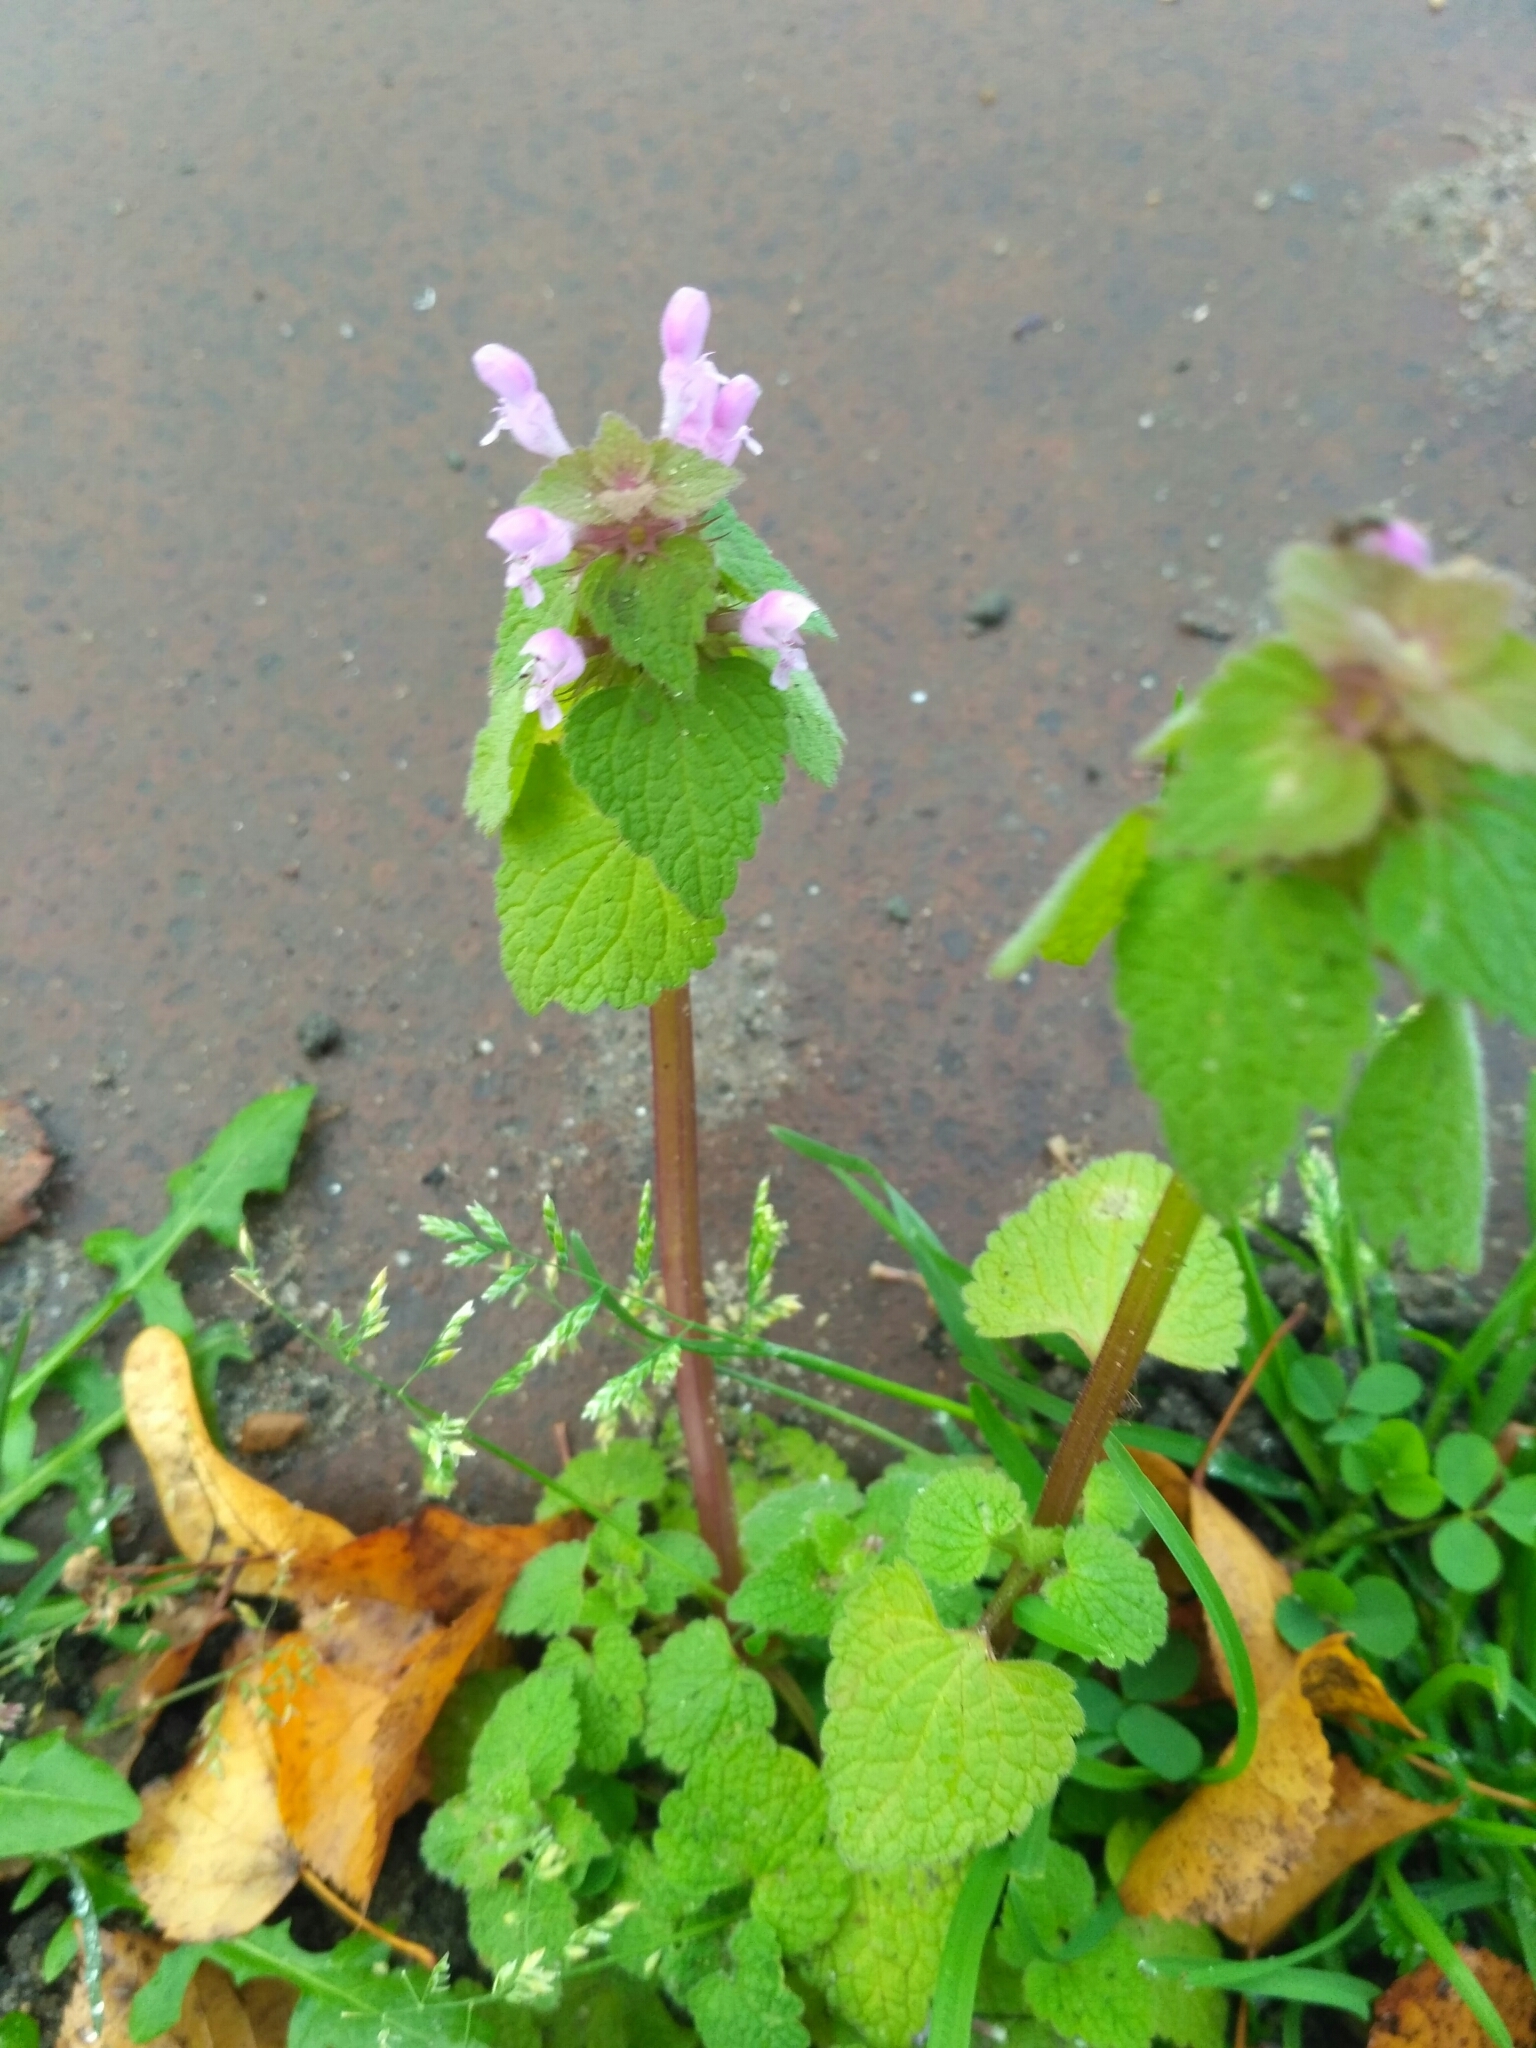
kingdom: Plantae
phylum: Tracheophyta
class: Magnoliopsida
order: Lamiales
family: Lamiaceae
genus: Lamium
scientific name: Lamium purpureum
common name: Red dead-nettle
